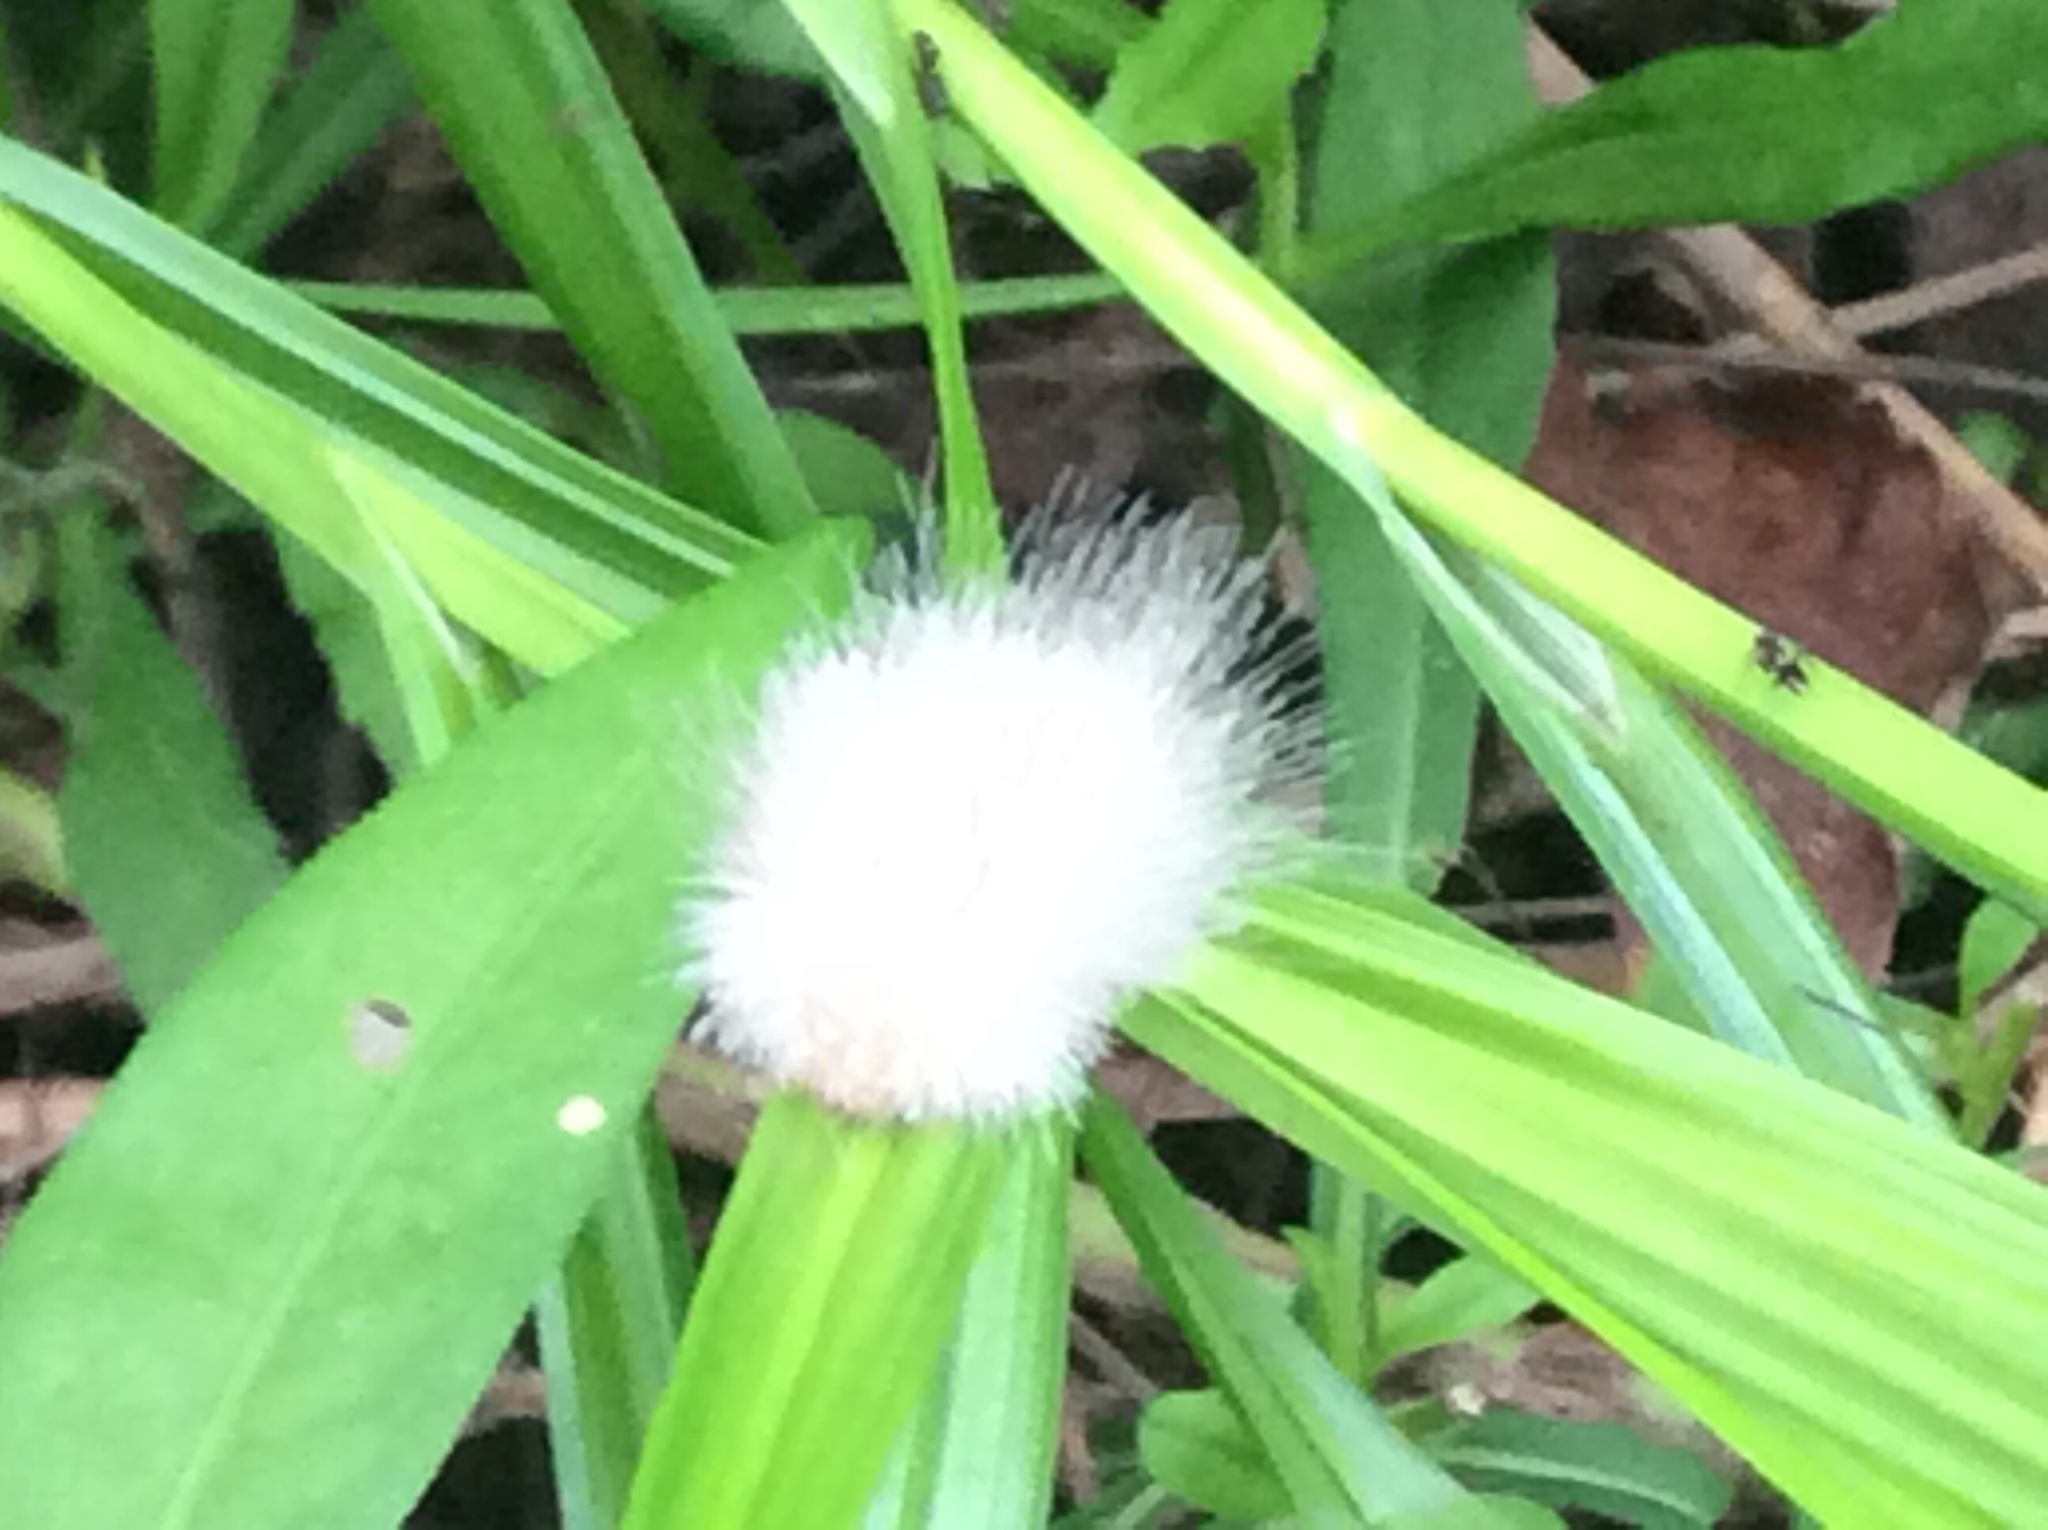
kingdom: Animalia
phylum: Arthropoda
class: Insecta
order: Lepidoptera
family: Erebidae
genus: Spilosoma
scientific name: Spilosoma virginica
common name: Virginia tiger moth
